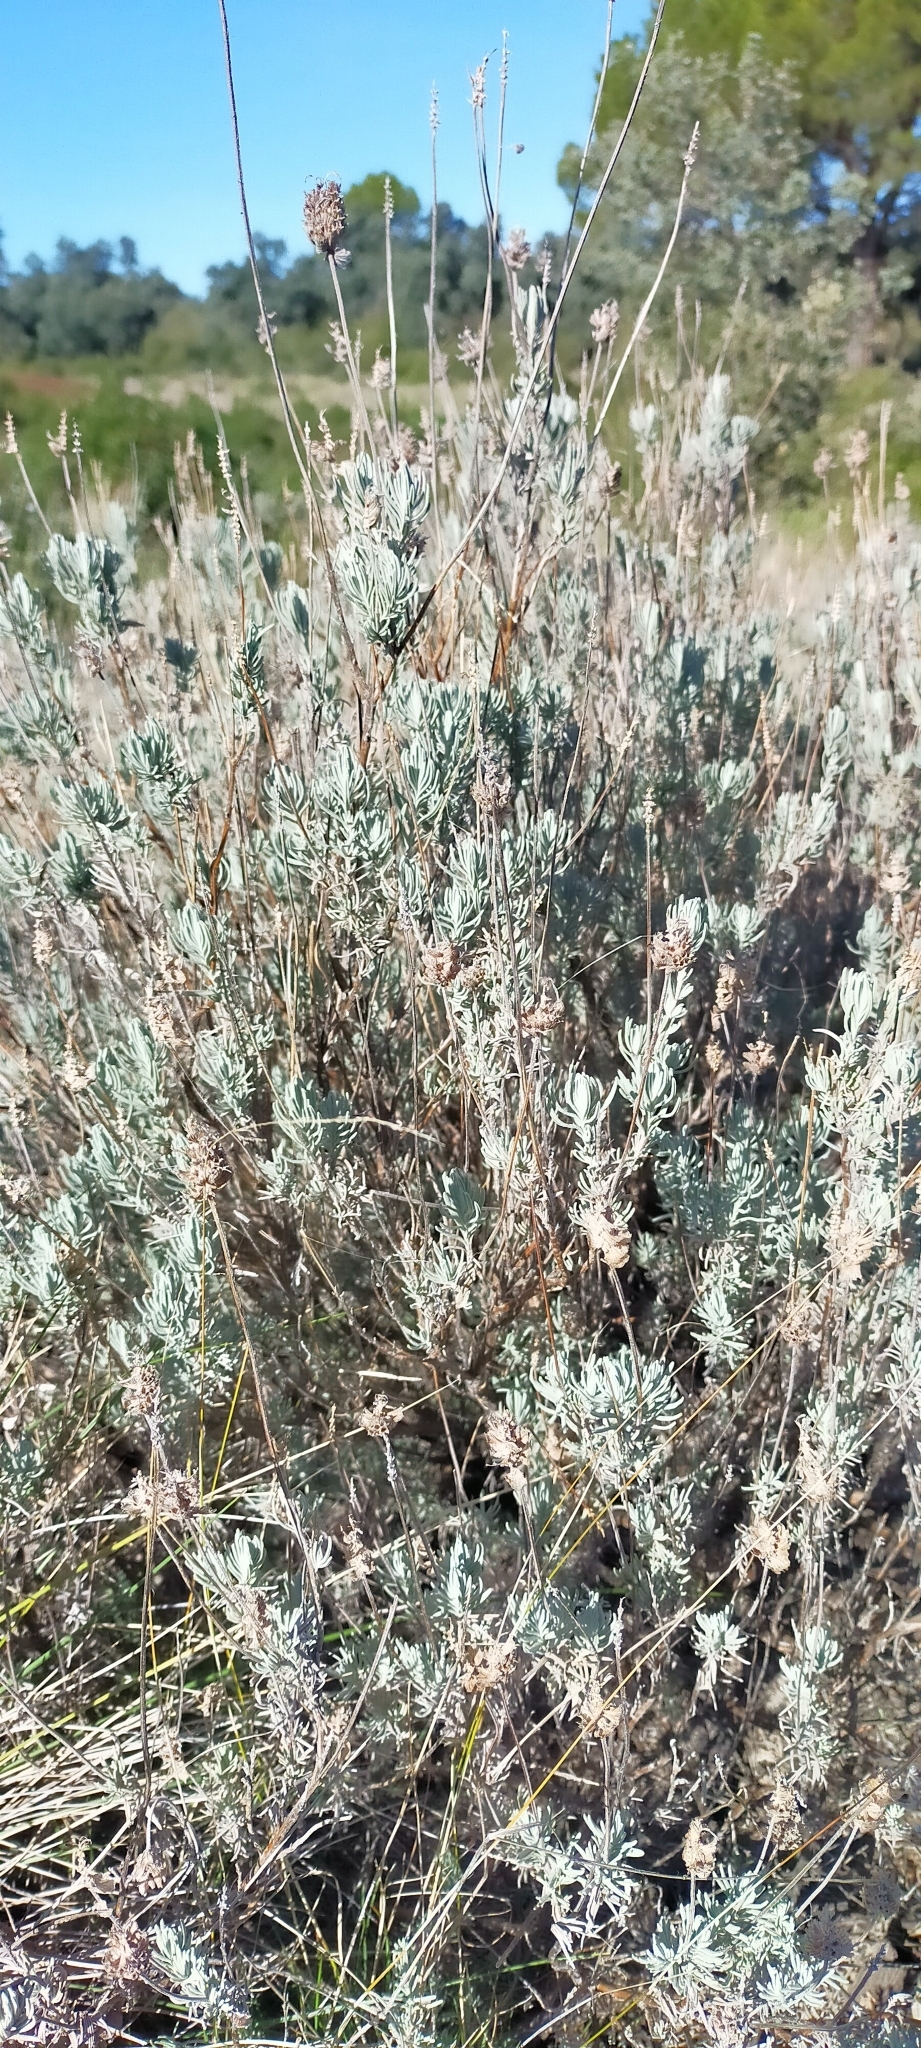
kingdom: Plantae
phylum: Tracheophyta
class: Magnoliopsida
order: Lamiales
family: Lamiaceae
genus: Lavandula
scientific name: Lavandula pedunculata
